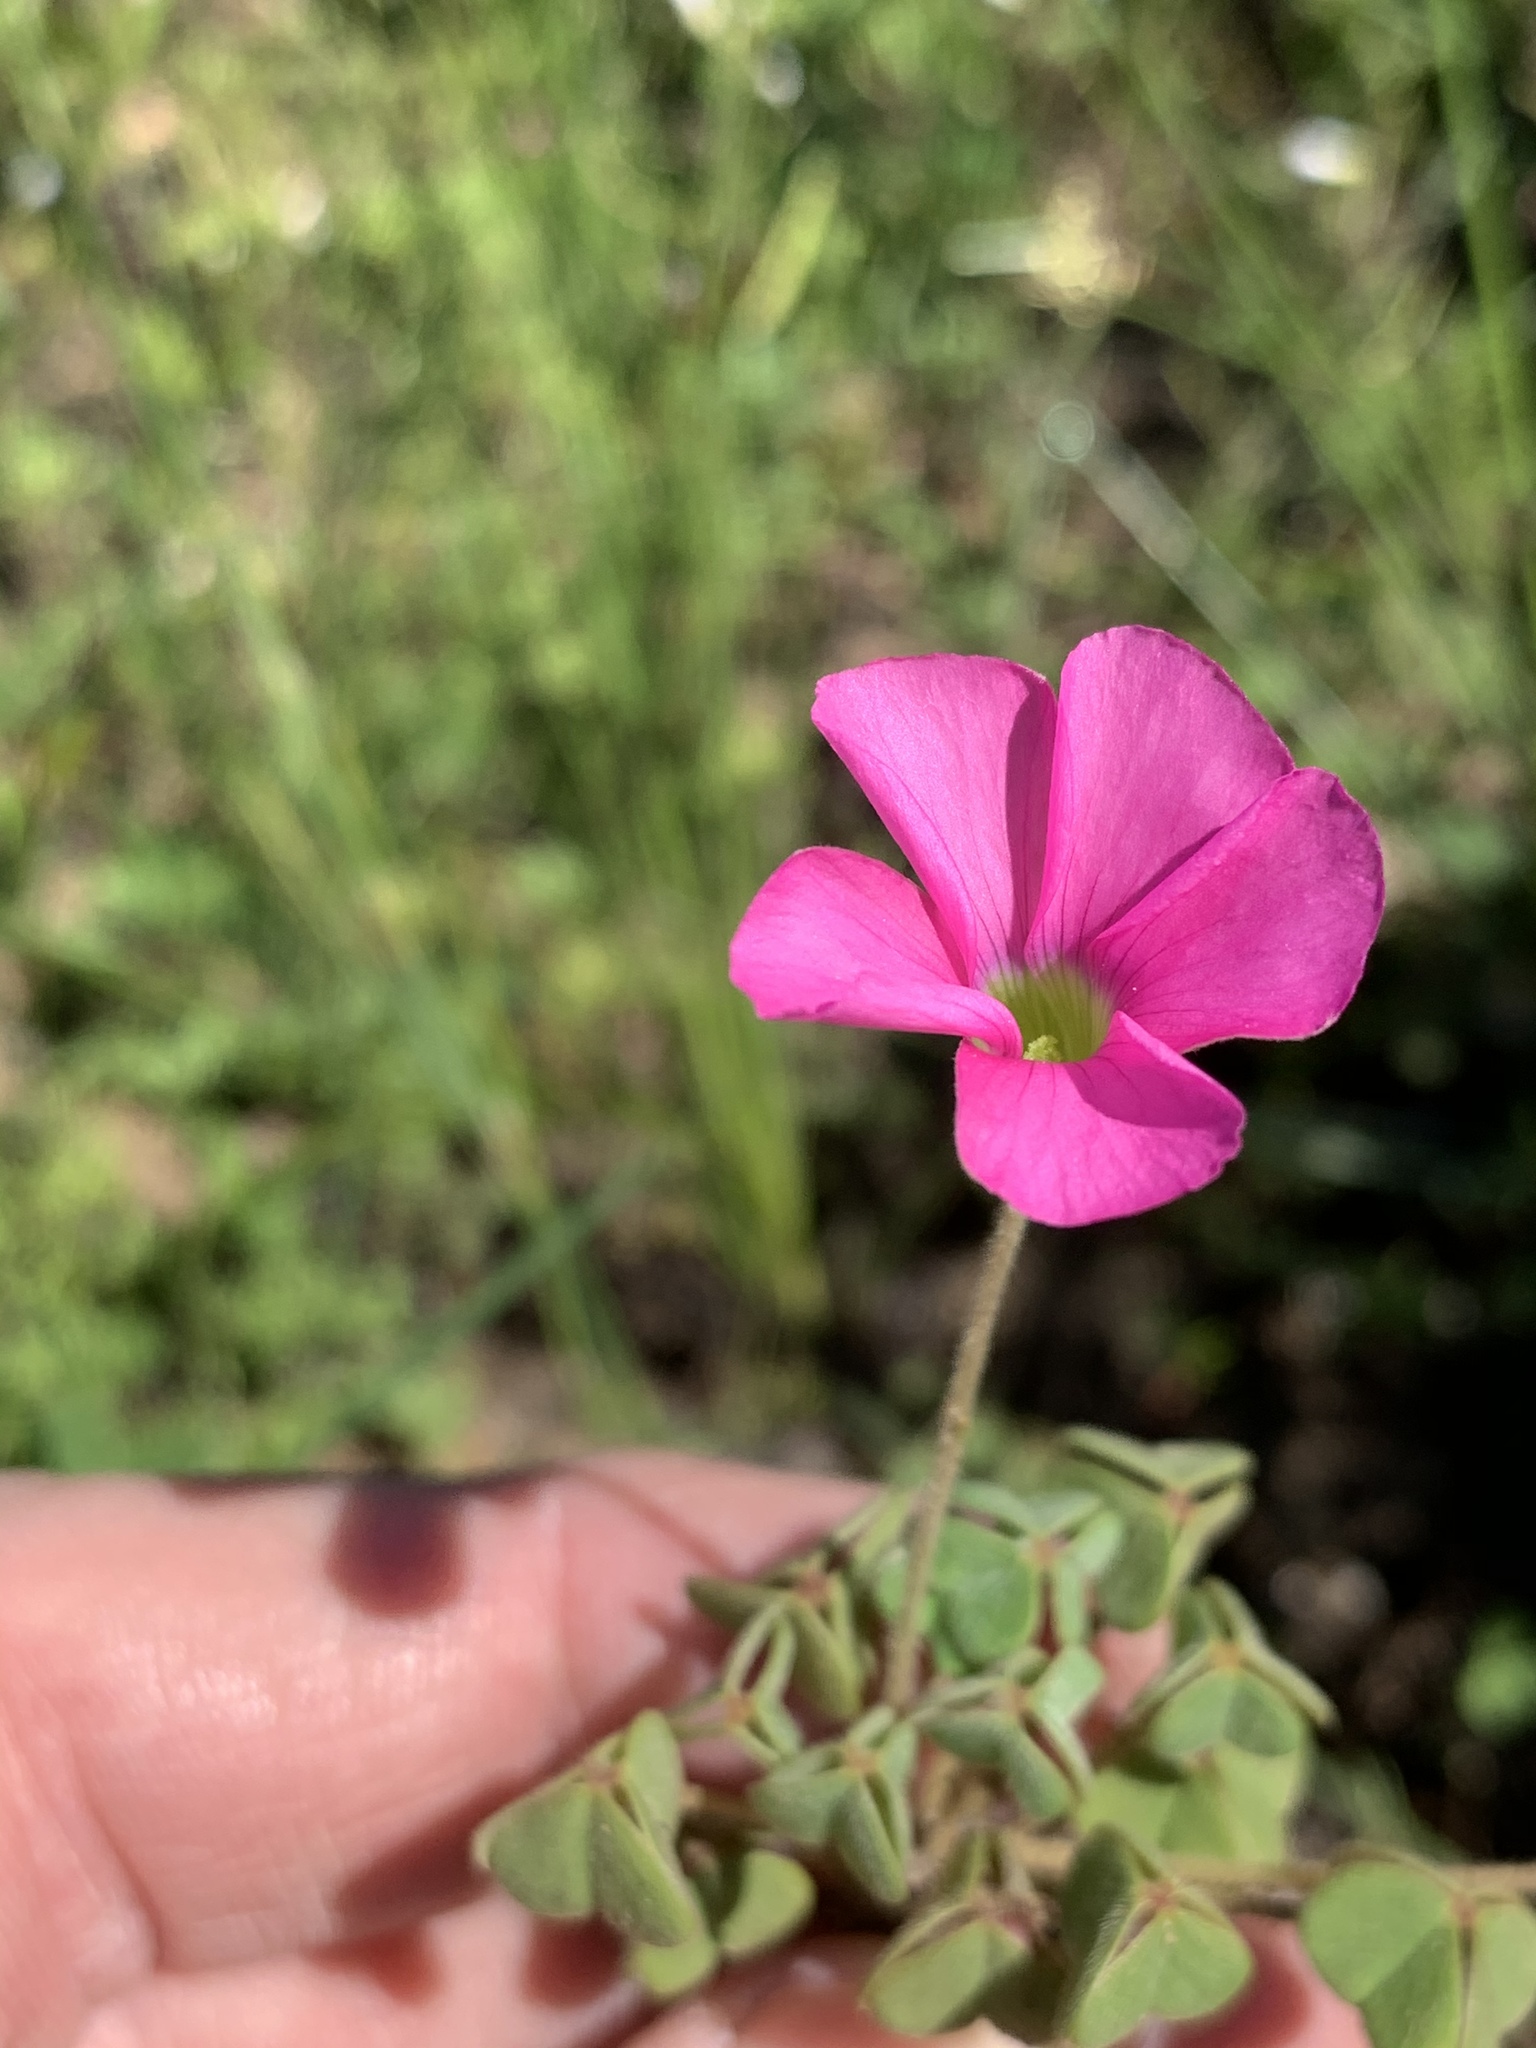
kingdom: Plantae
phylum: Tracheophyta
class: Magnoliopsida
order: Oxalidales
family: Oxalidaceae
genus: Oxalis
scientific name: Oxalis lanata
